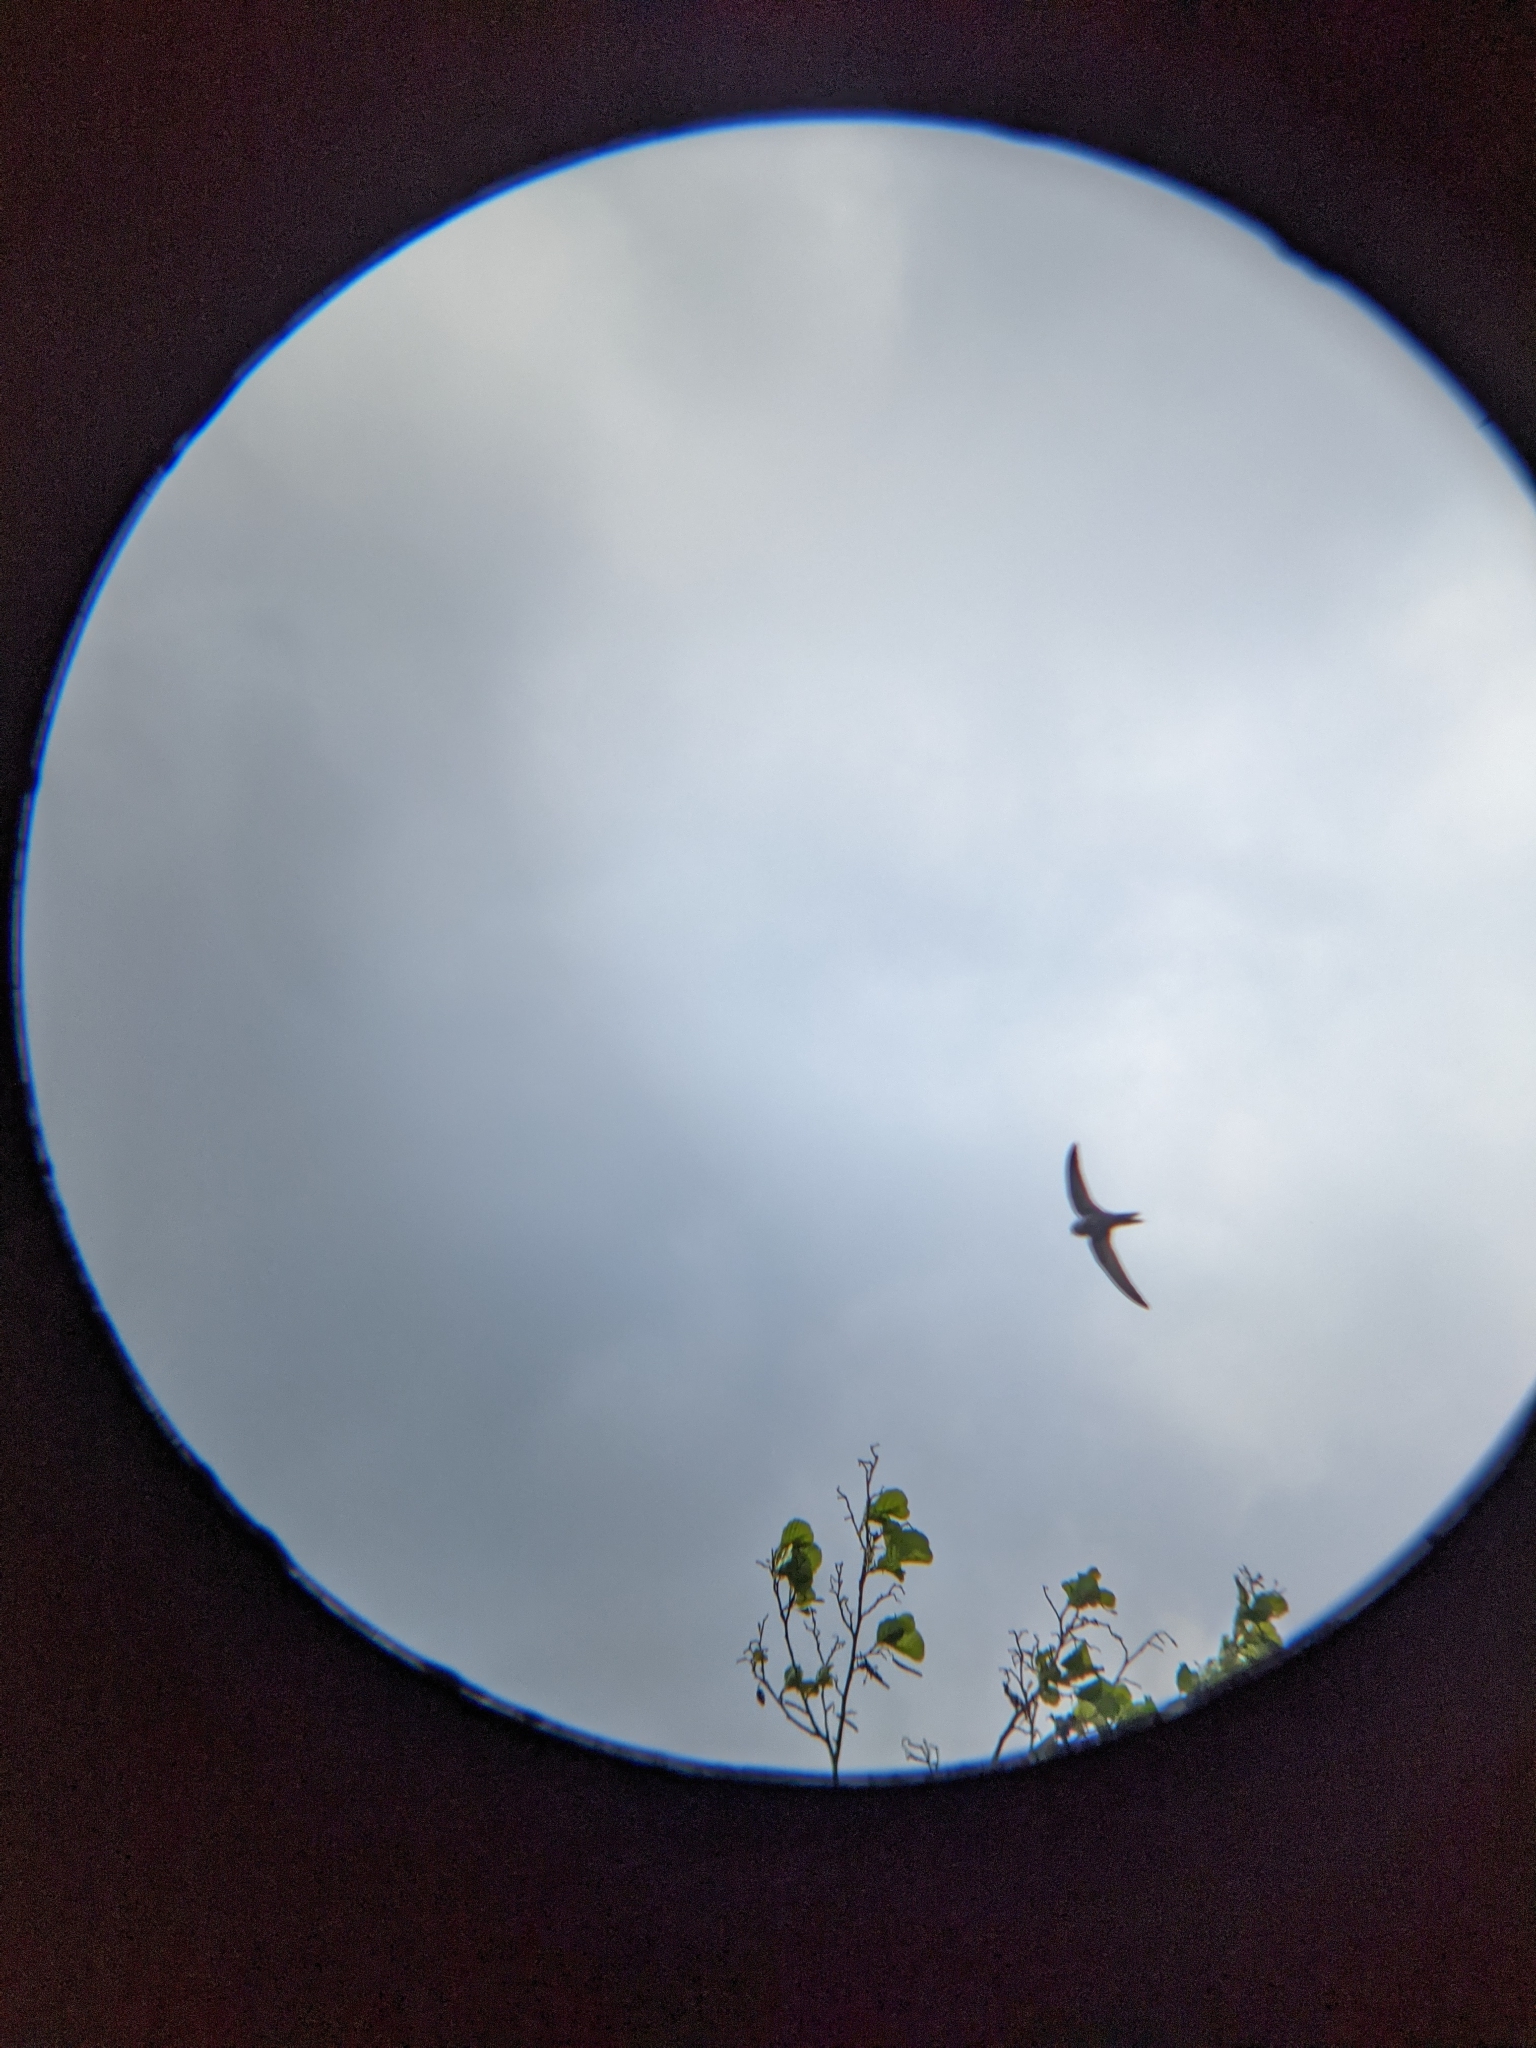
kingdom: Animalia
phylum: Chordata
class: Aves
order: Apodiformes
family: Apodidae
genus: Apus
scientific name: Apus apus
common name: Common swift
